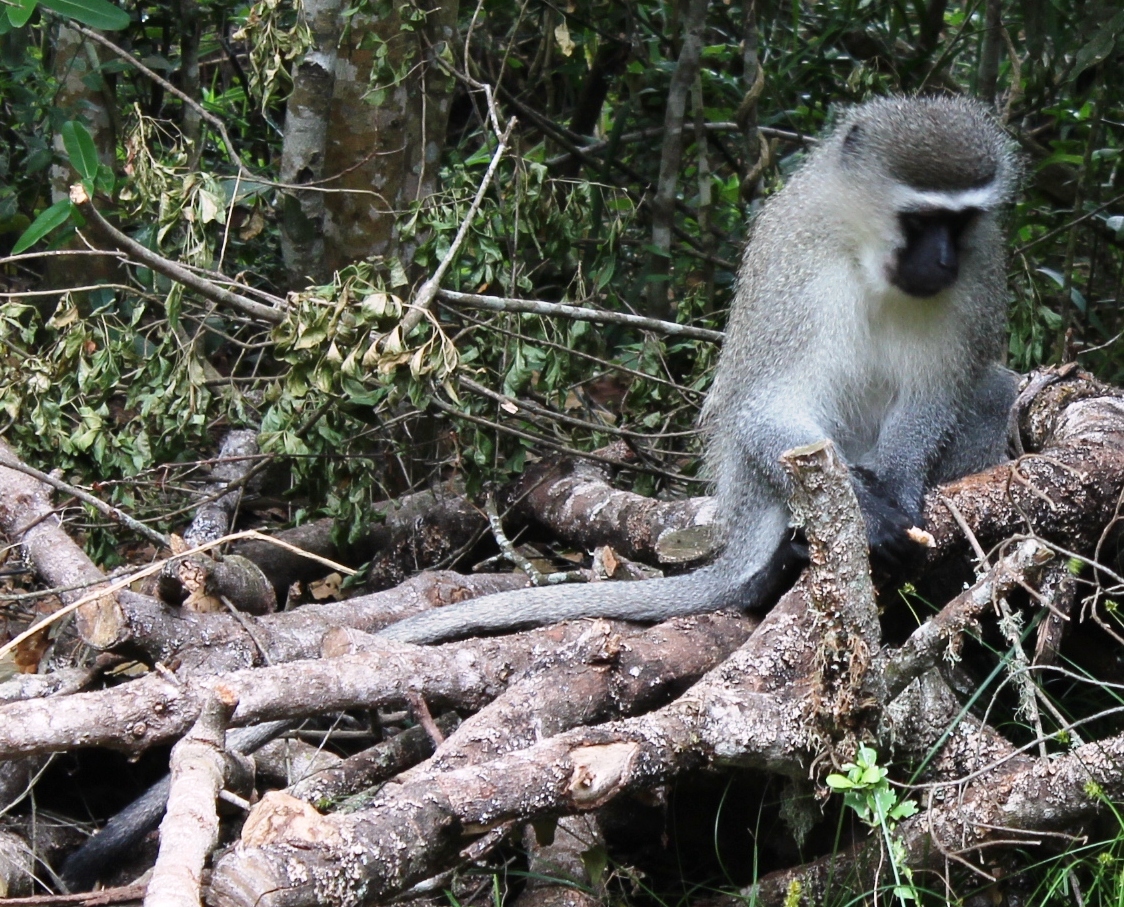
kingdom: Animalia
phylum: Chordata
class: Mammalia
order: Primates
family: Cercopithecidae
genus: Chlorocebus
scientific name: Chlorocebus pygerythrus
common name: Vervet monkey
